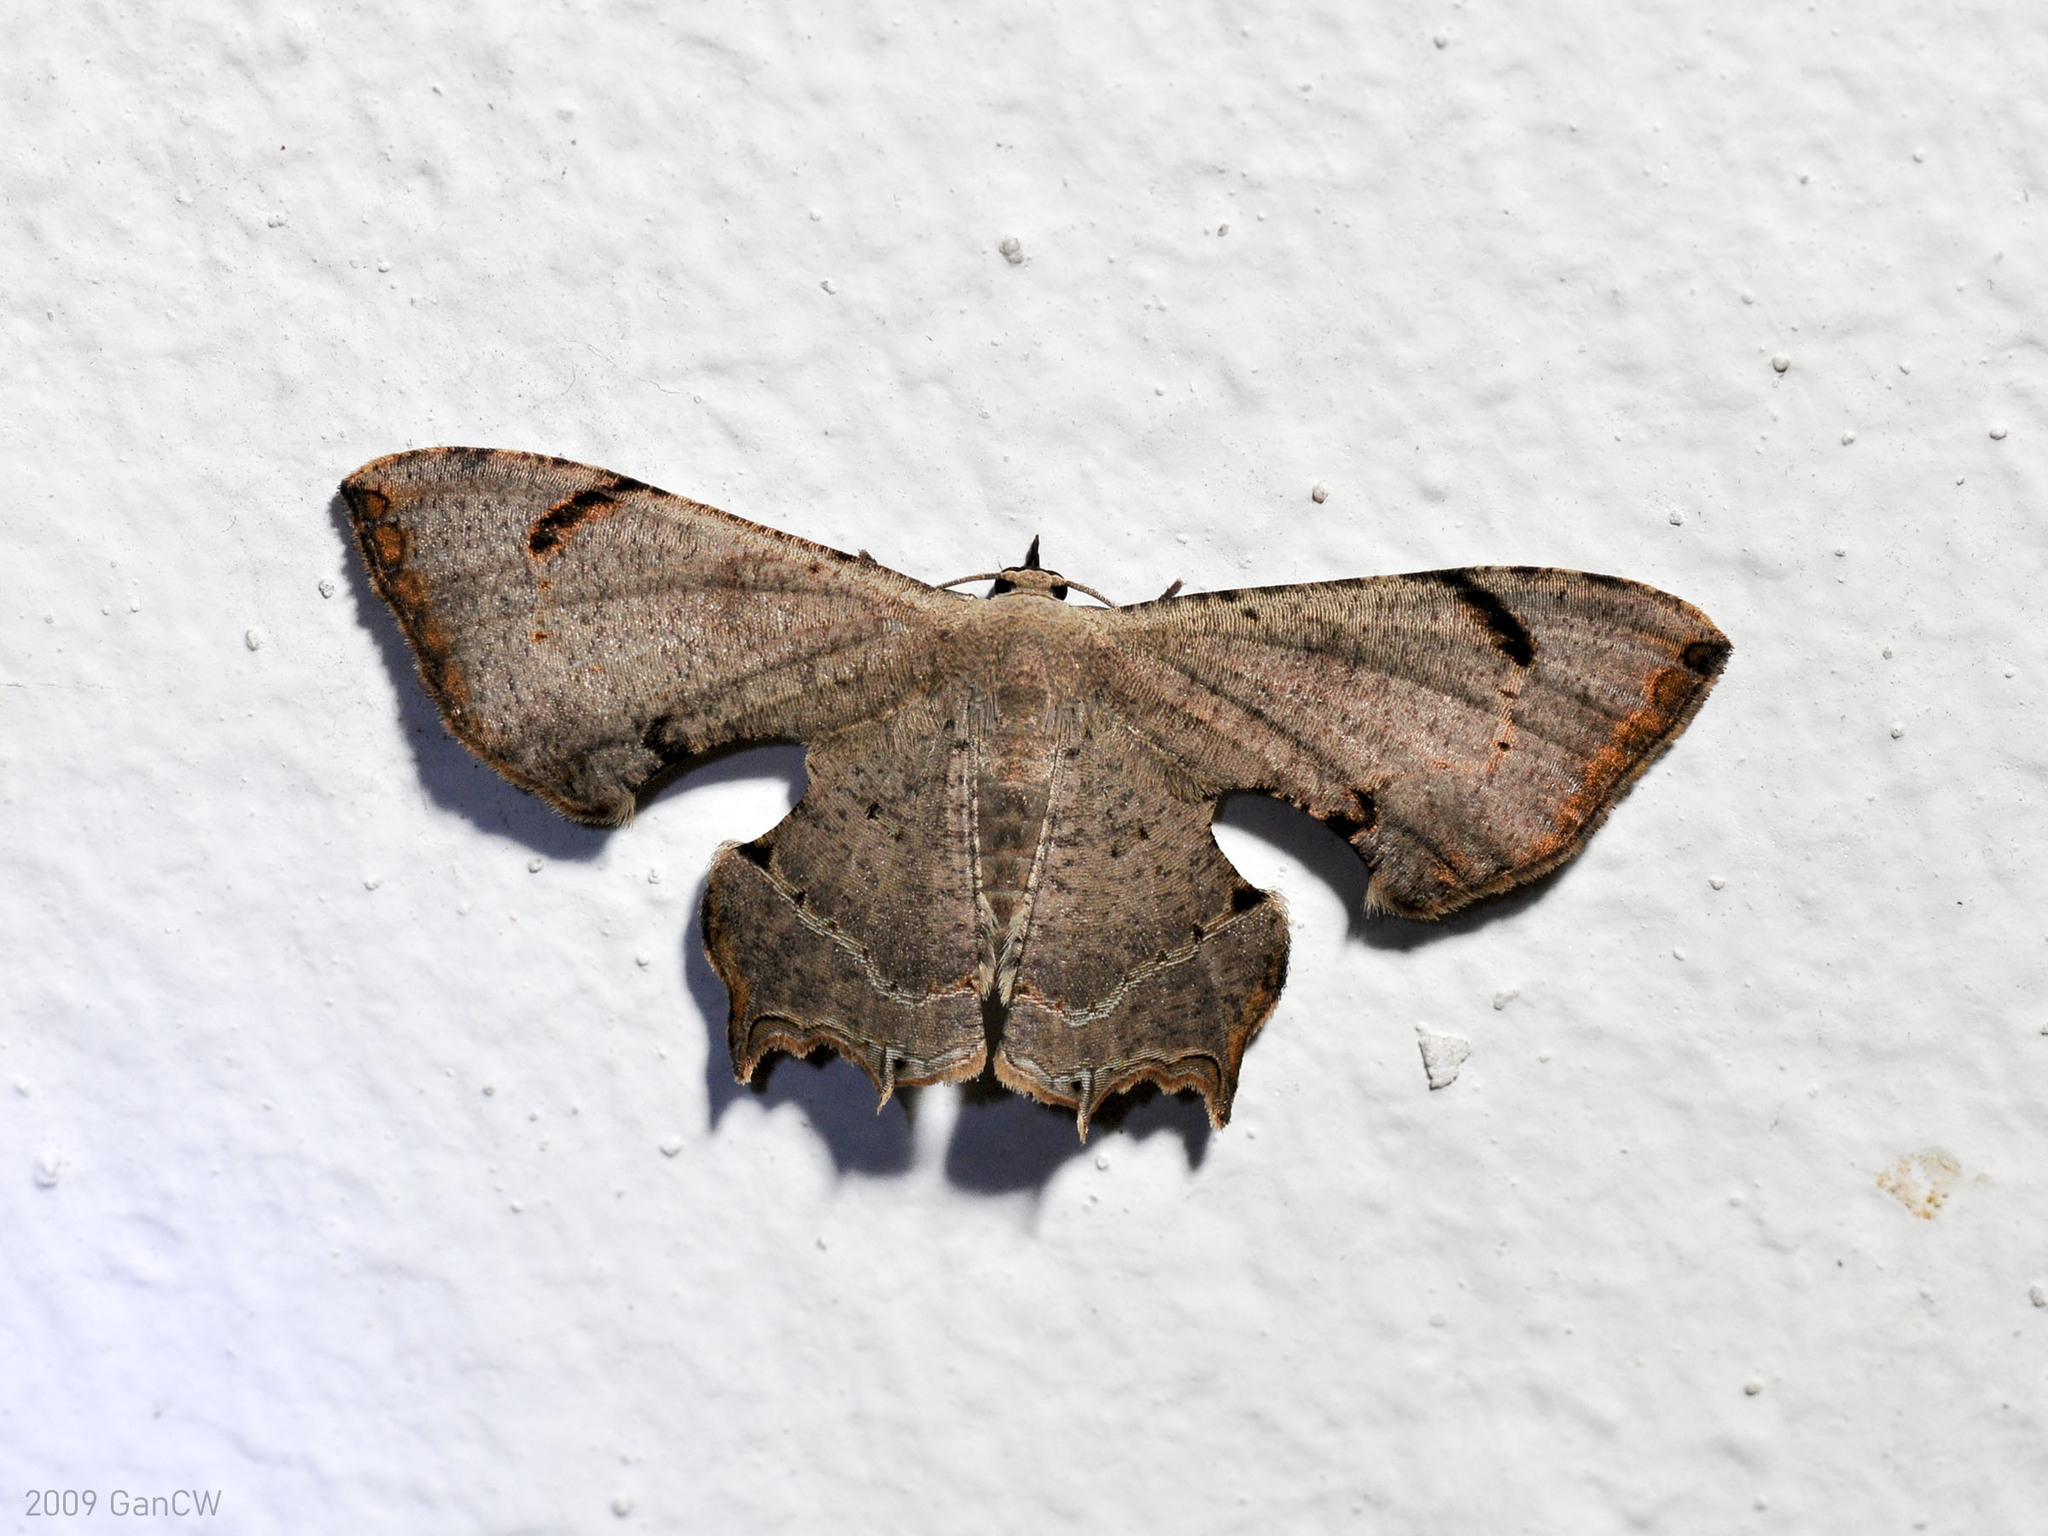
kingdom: Animalia
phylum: Arthropoda
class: Insecta
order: Lepidoptera
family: Uraniidae
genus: Dysaethria
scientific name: Dysaethria quadricaudata
